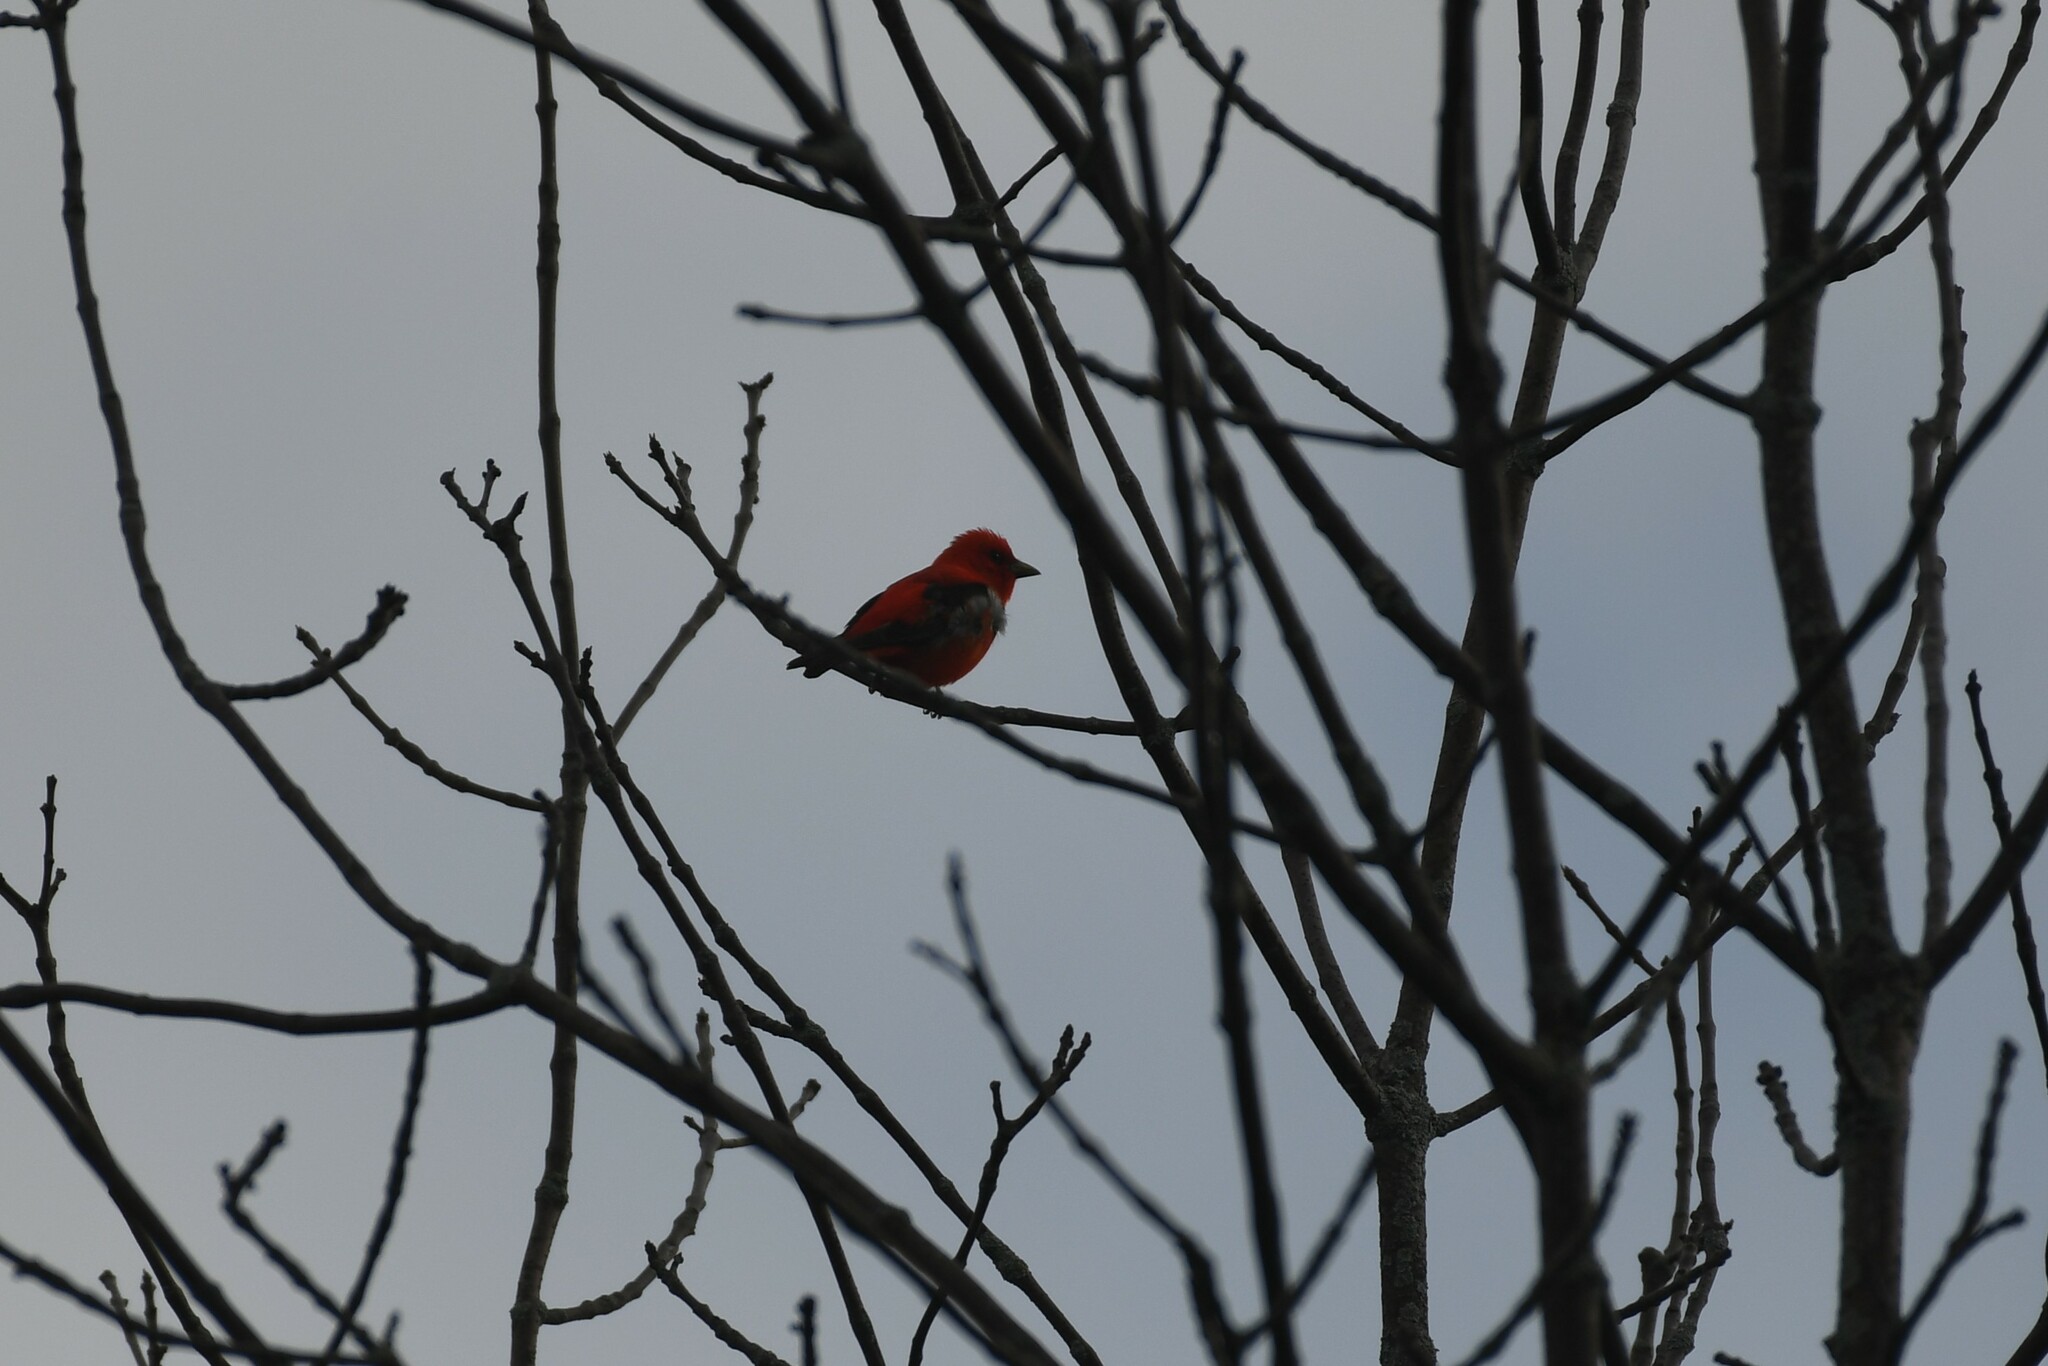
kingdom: Animalia
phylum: Chordata
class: Aves
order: Passeriformes
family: Cardinalidae
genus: Piranga
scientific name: Piranga olivacea
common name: Scarlet tanager
